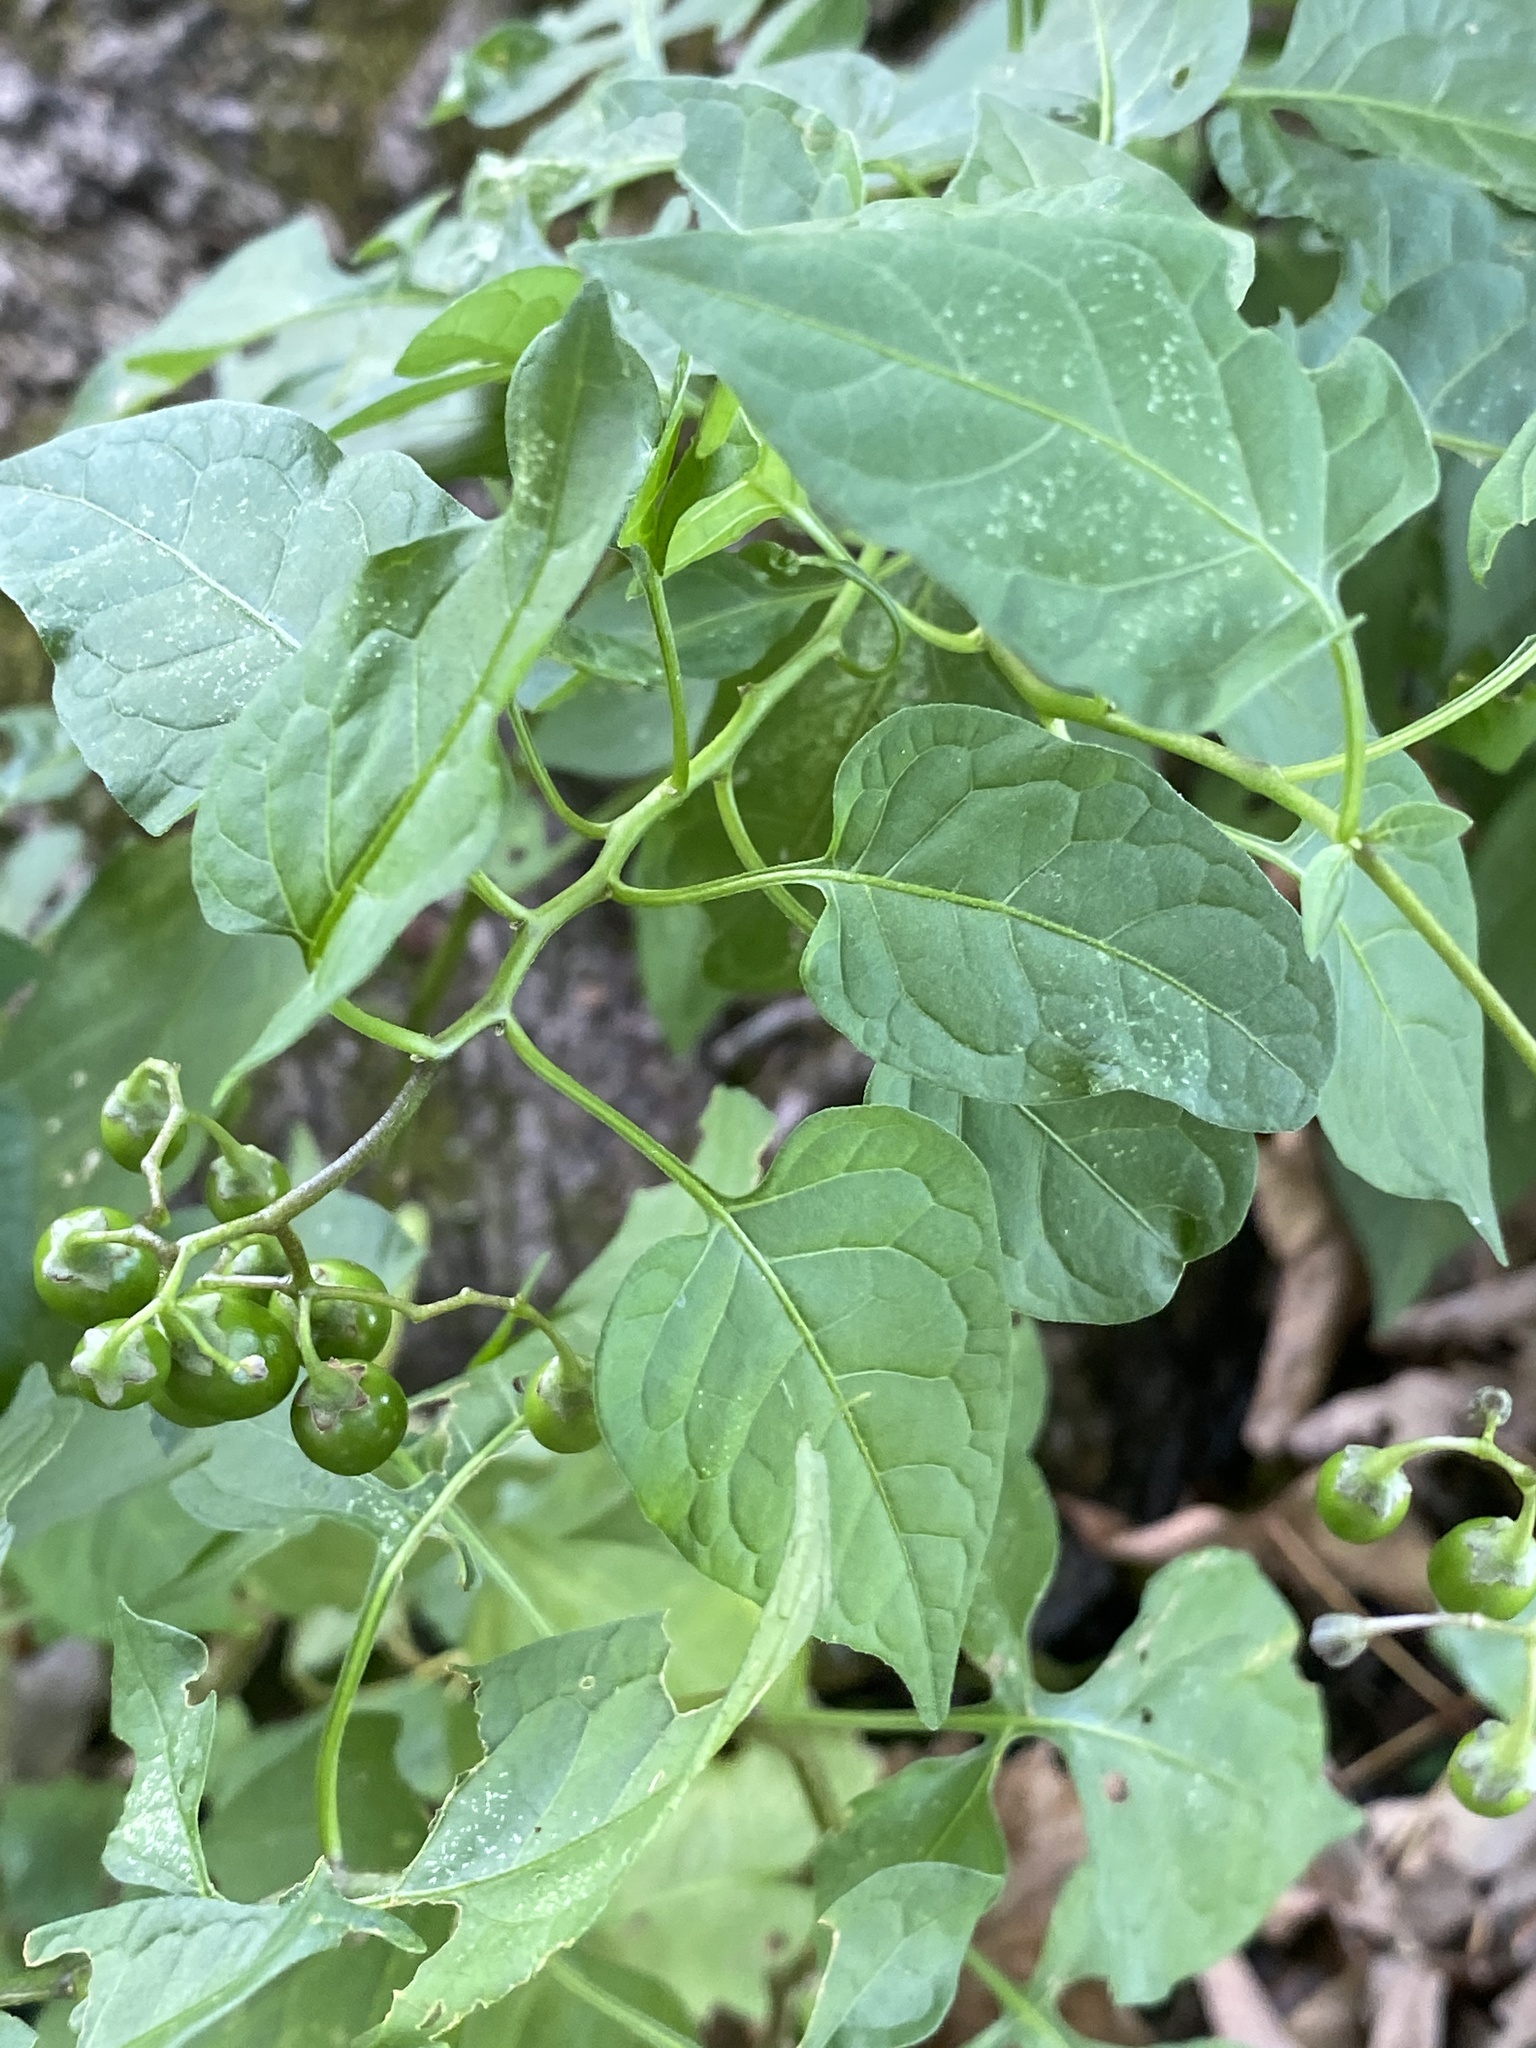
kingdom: Plantae
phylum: Tracheophyta
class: Magnoliopsida
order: Solanales
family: Solanaceae
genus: Solanum
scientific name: Solanum dulcamara
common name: Climbing nightshade
